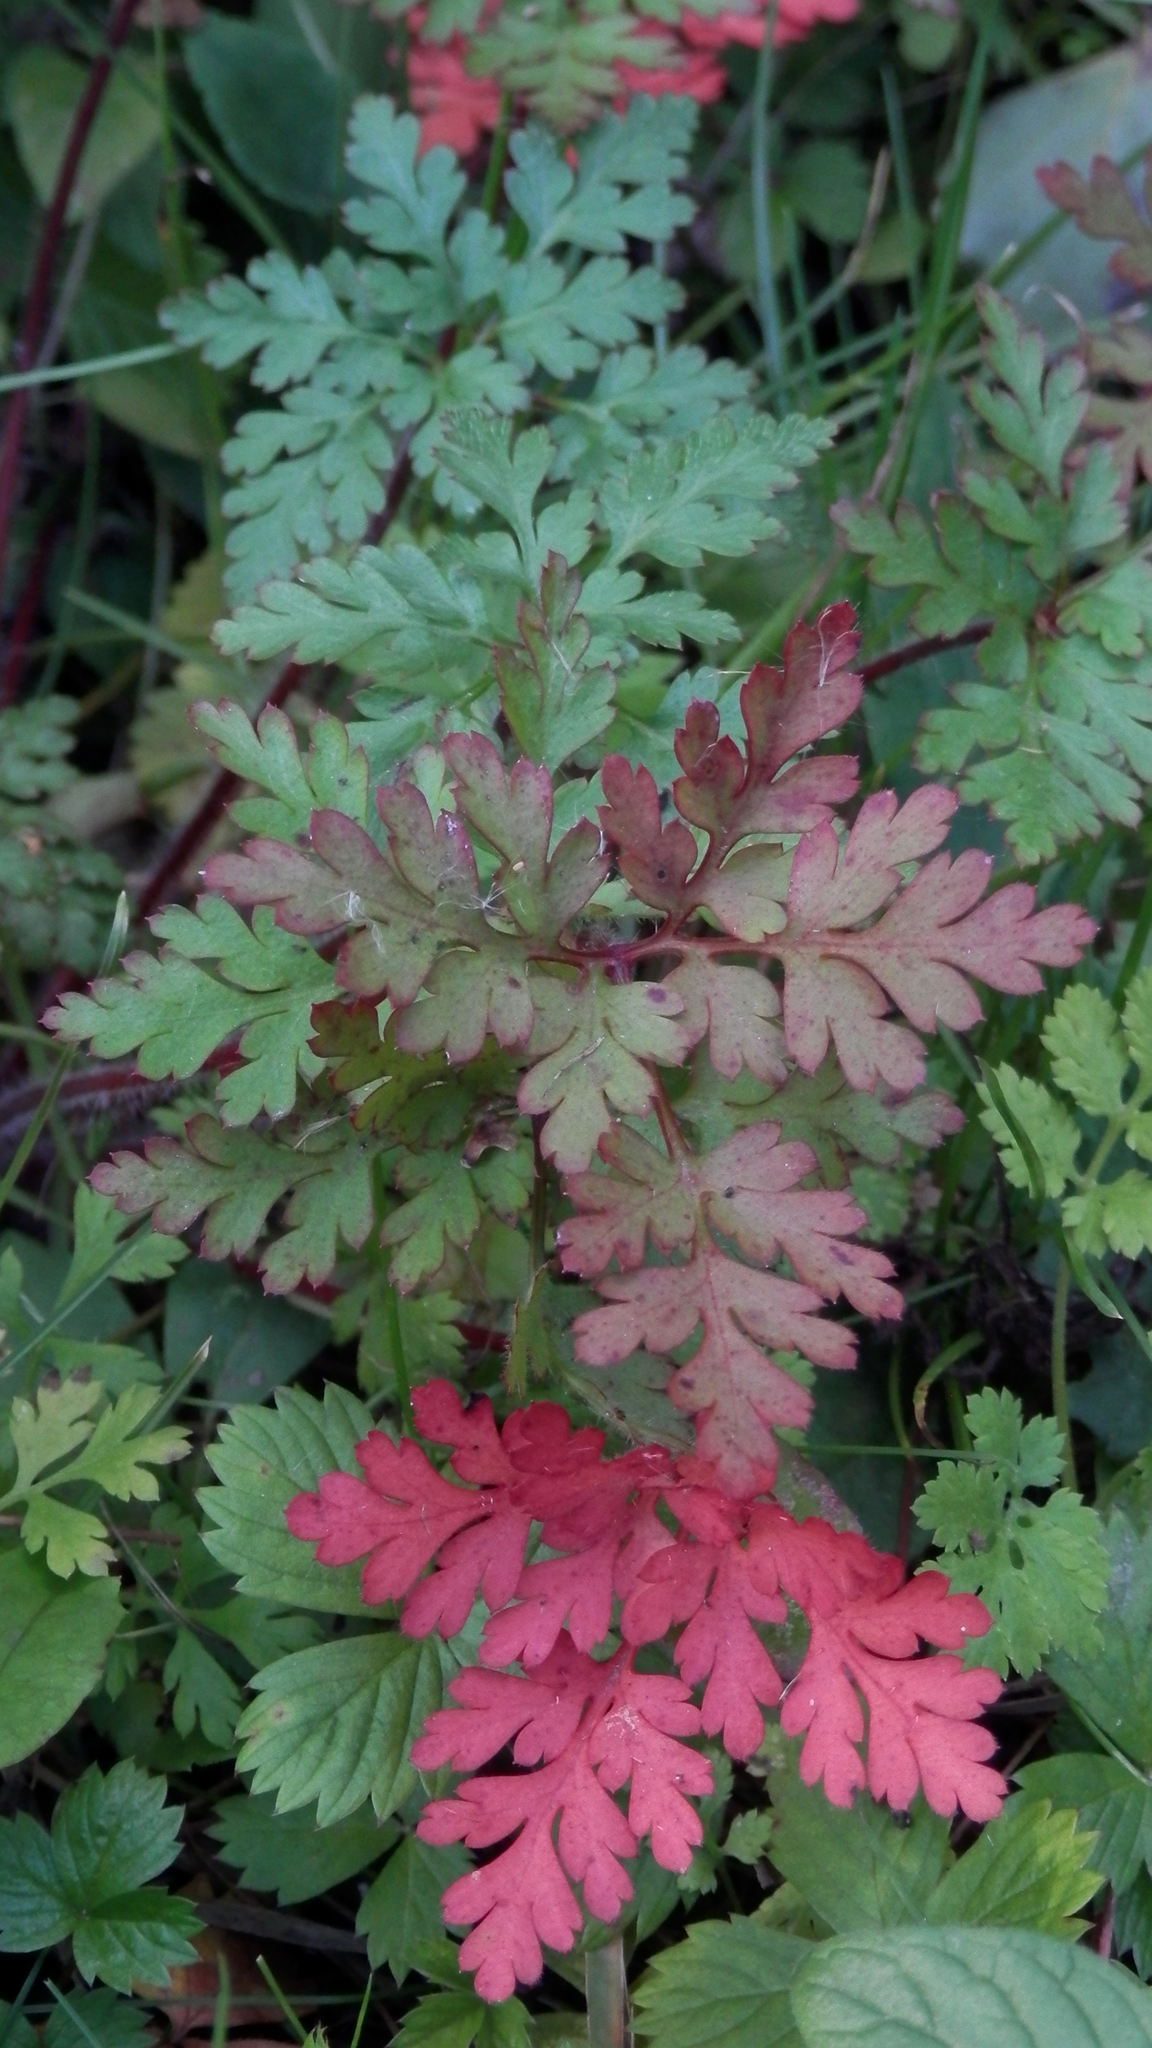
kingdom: Plantae
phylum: Tracheophyta
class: Magnoliopsida
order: Geraniales
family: Geraniaceae
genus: Geranium
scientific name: Geranium robertianum
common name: Herb-robert
